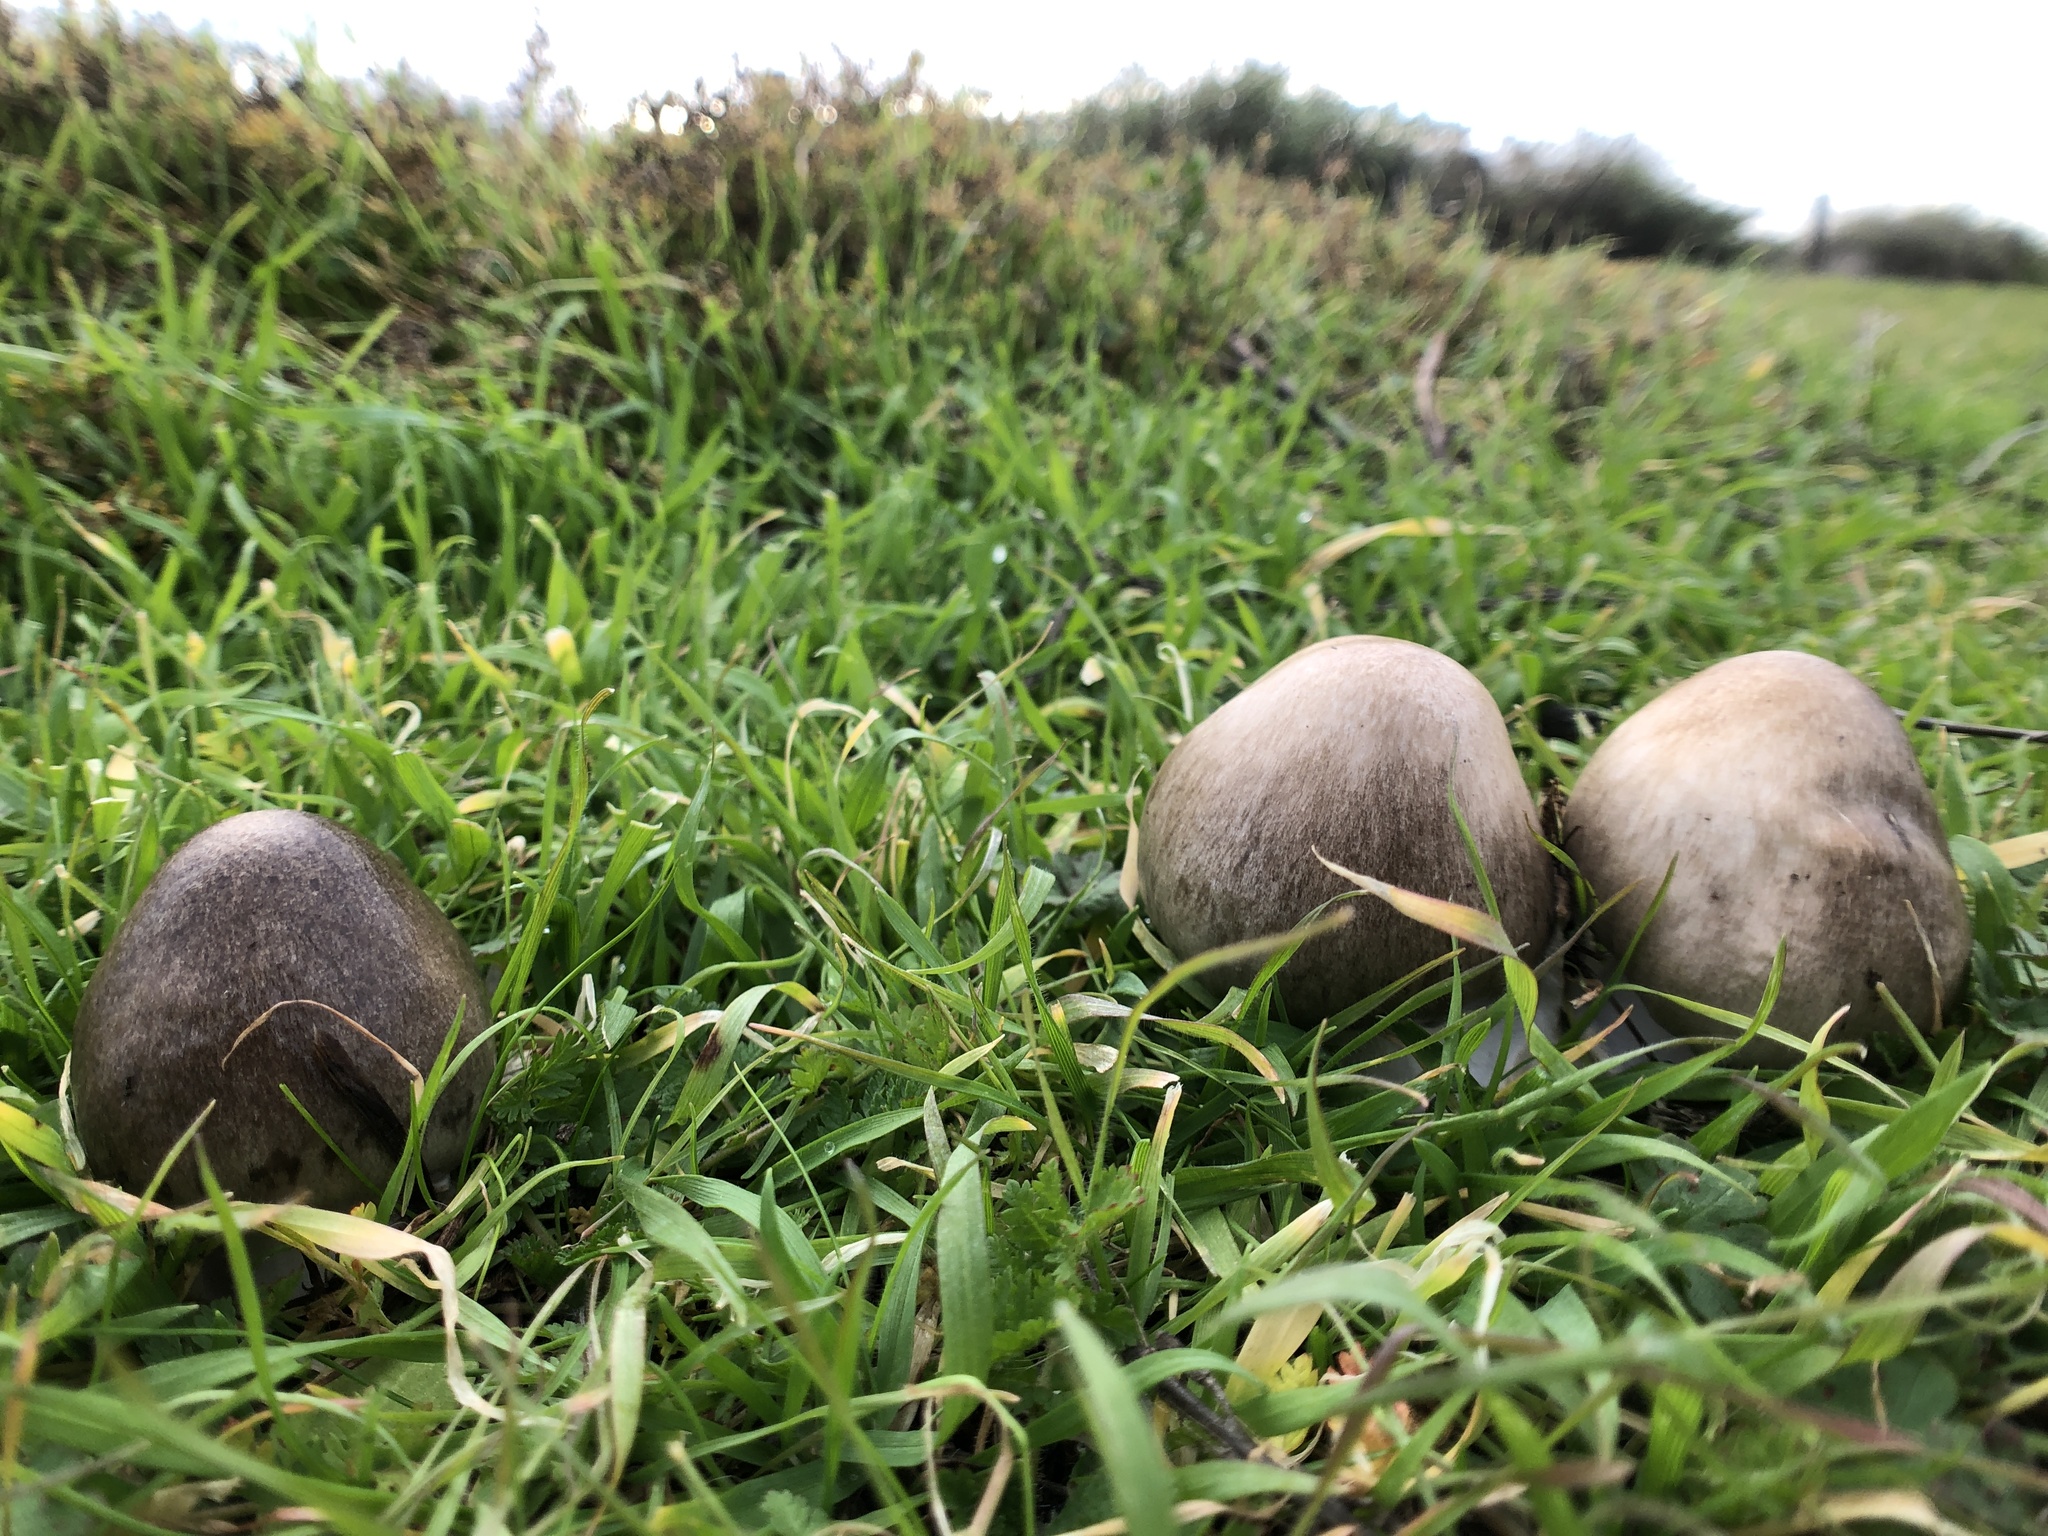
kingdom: Fungi
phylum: Basidiomycota
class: Agaricomycetes
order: Agaricales
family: Pluteaceae
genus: Volvopluteus
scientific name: Volvopluteus gloiocephalus
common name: Stubble rosegill
